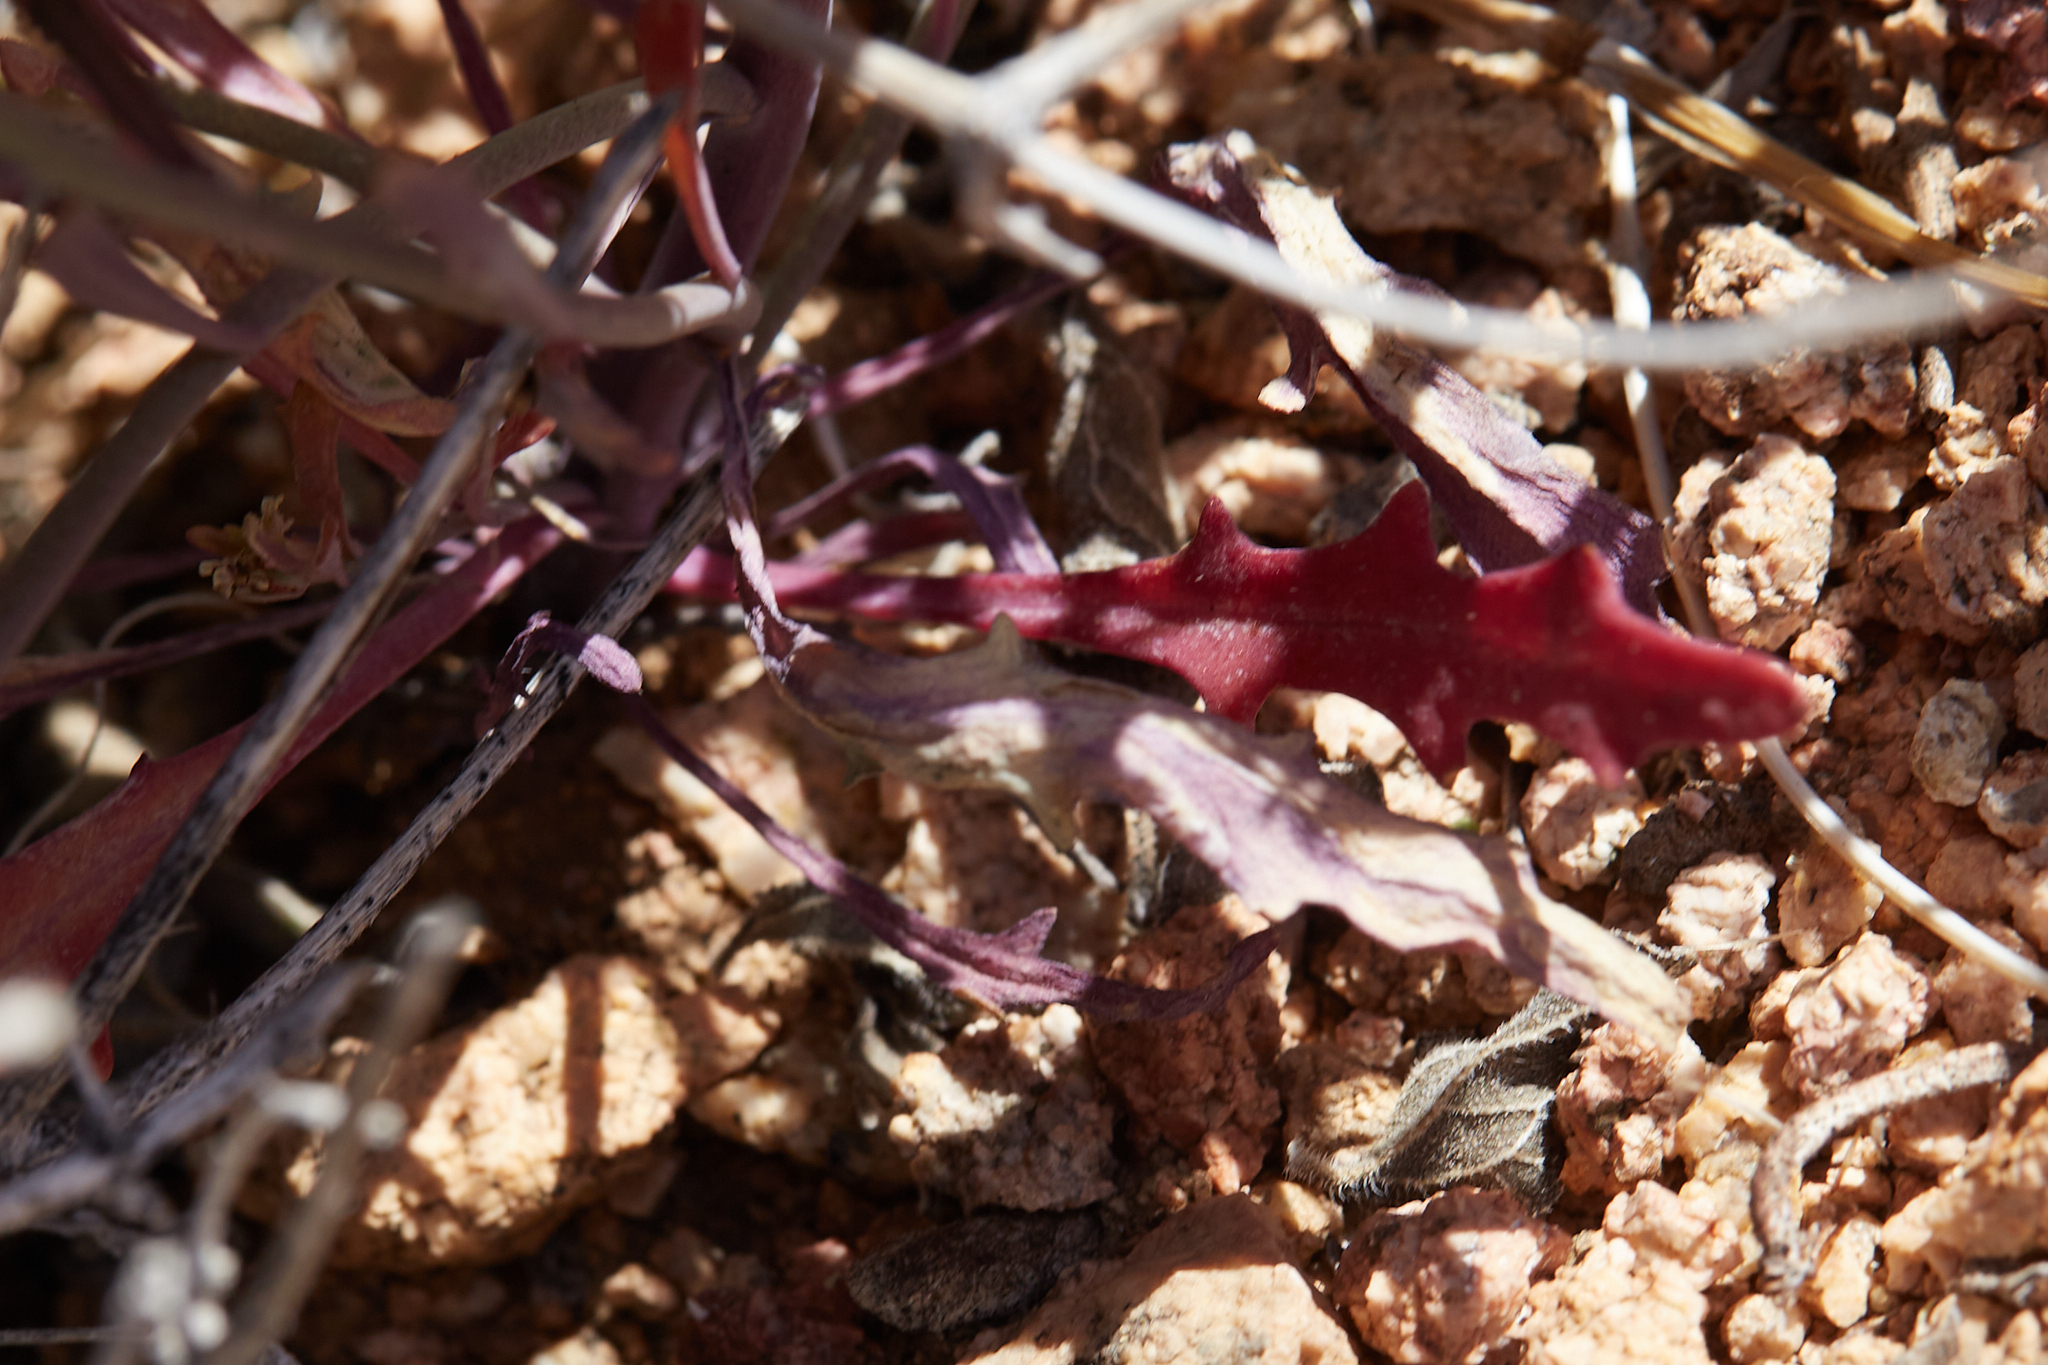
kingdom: Plantae
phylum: Tracheophyta
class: Magnoliopsida
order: Brassicales
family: Brassicaceae
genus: Thysanocarpus
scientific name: Thysanocarpus desertorum
